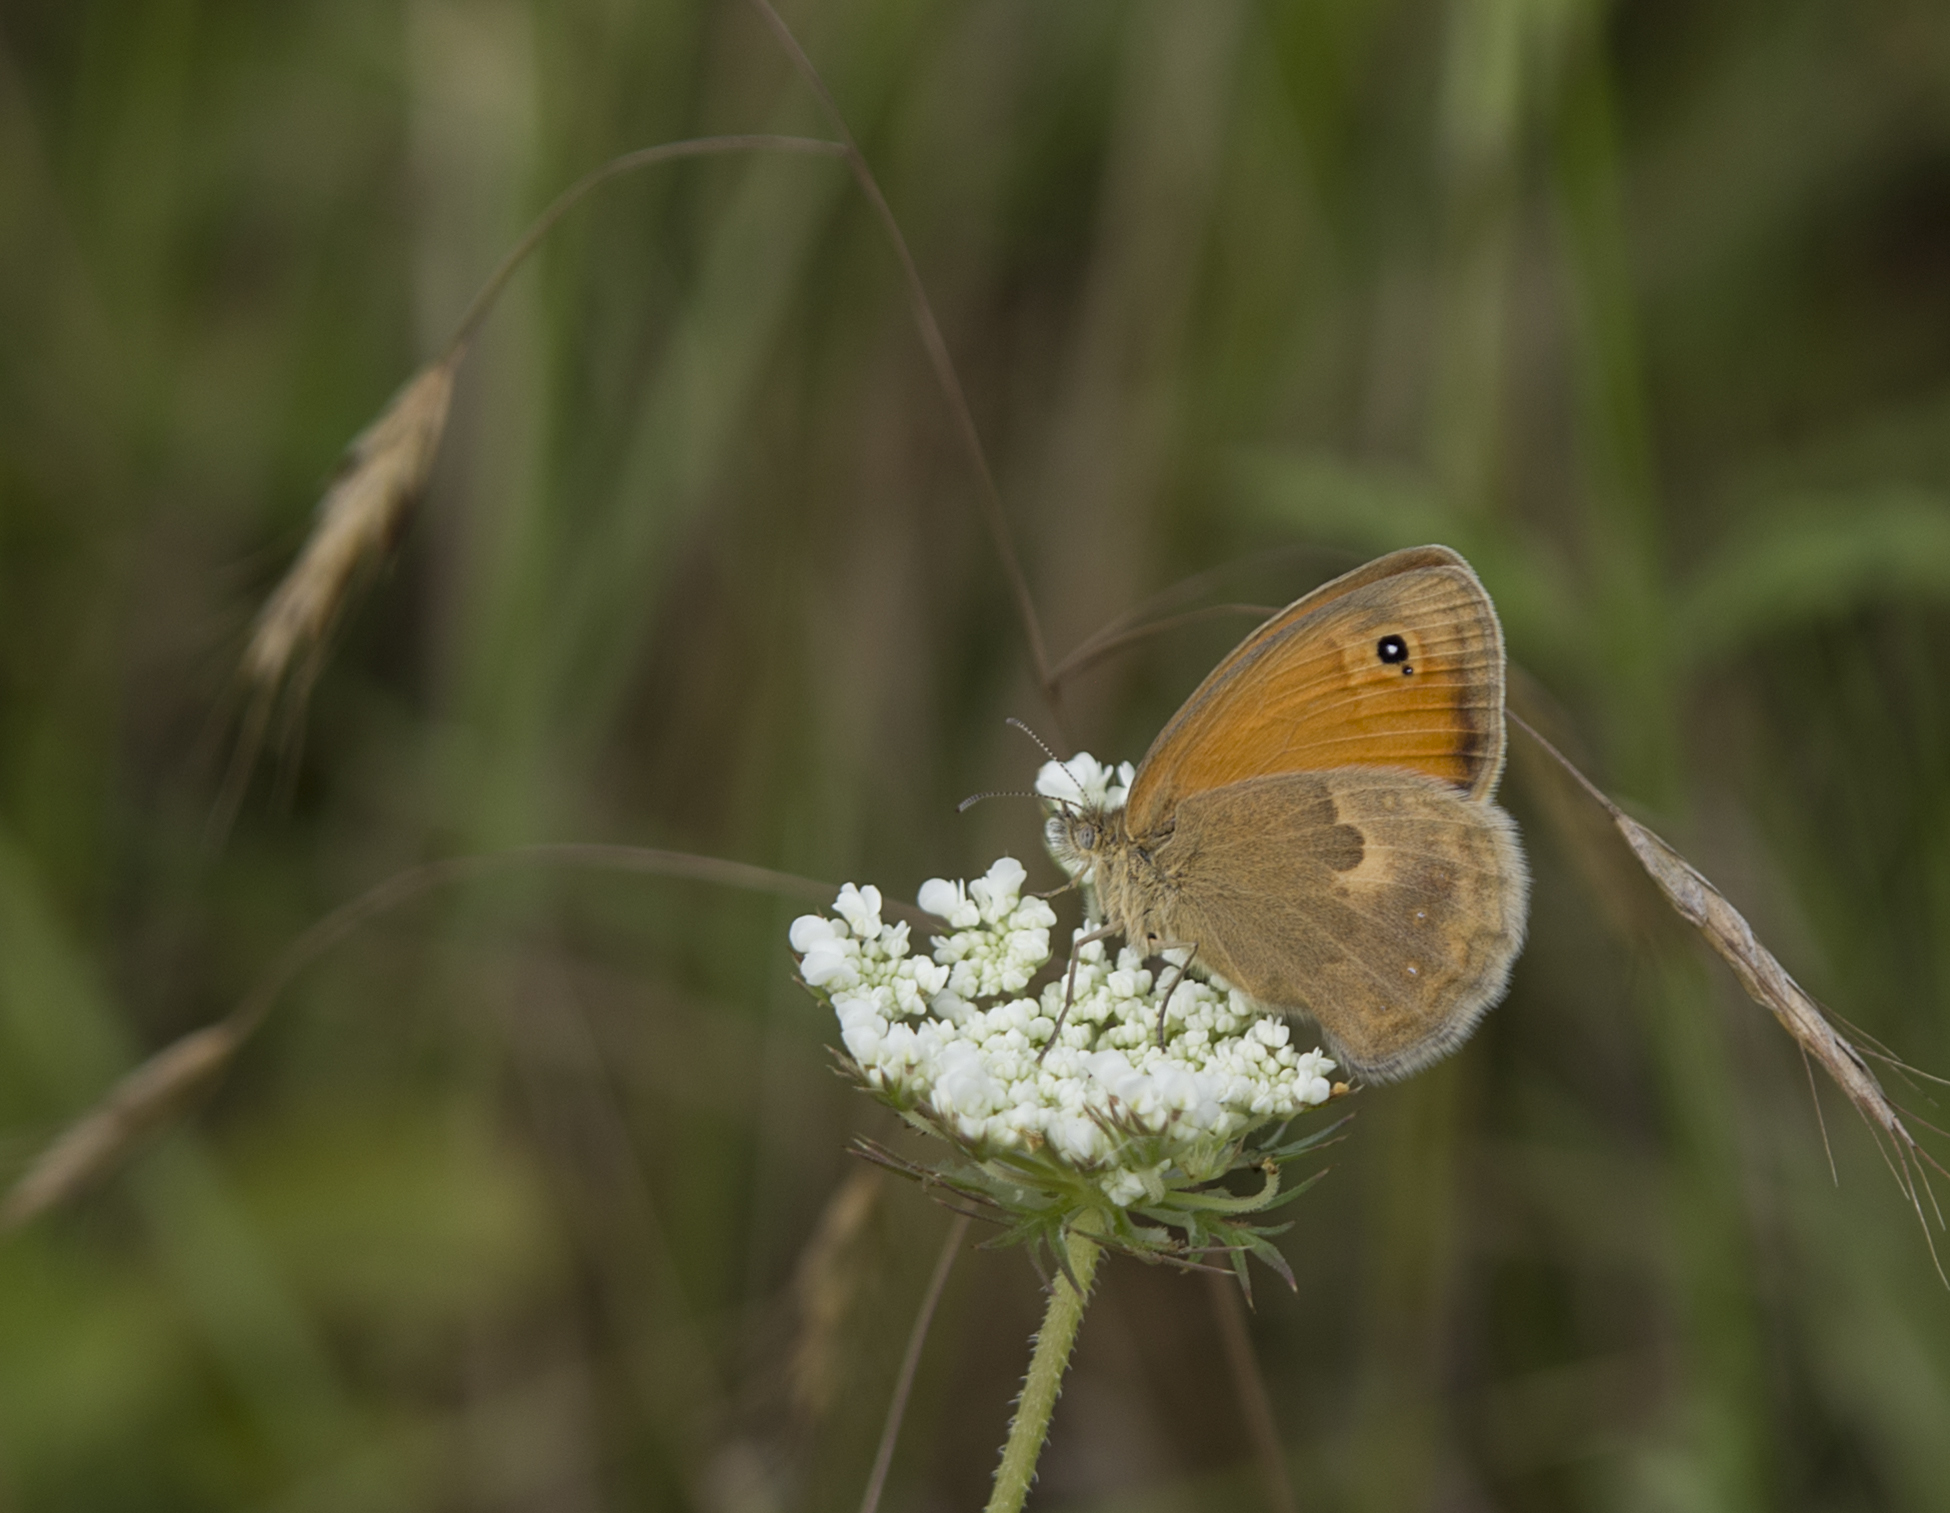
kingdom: Animalia
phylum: Arthropoda
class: Insecta
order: Lepidoptera
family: Nymphalidae
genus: Coenonympha
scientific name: Coenonympha pamphilus
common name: Small heath
